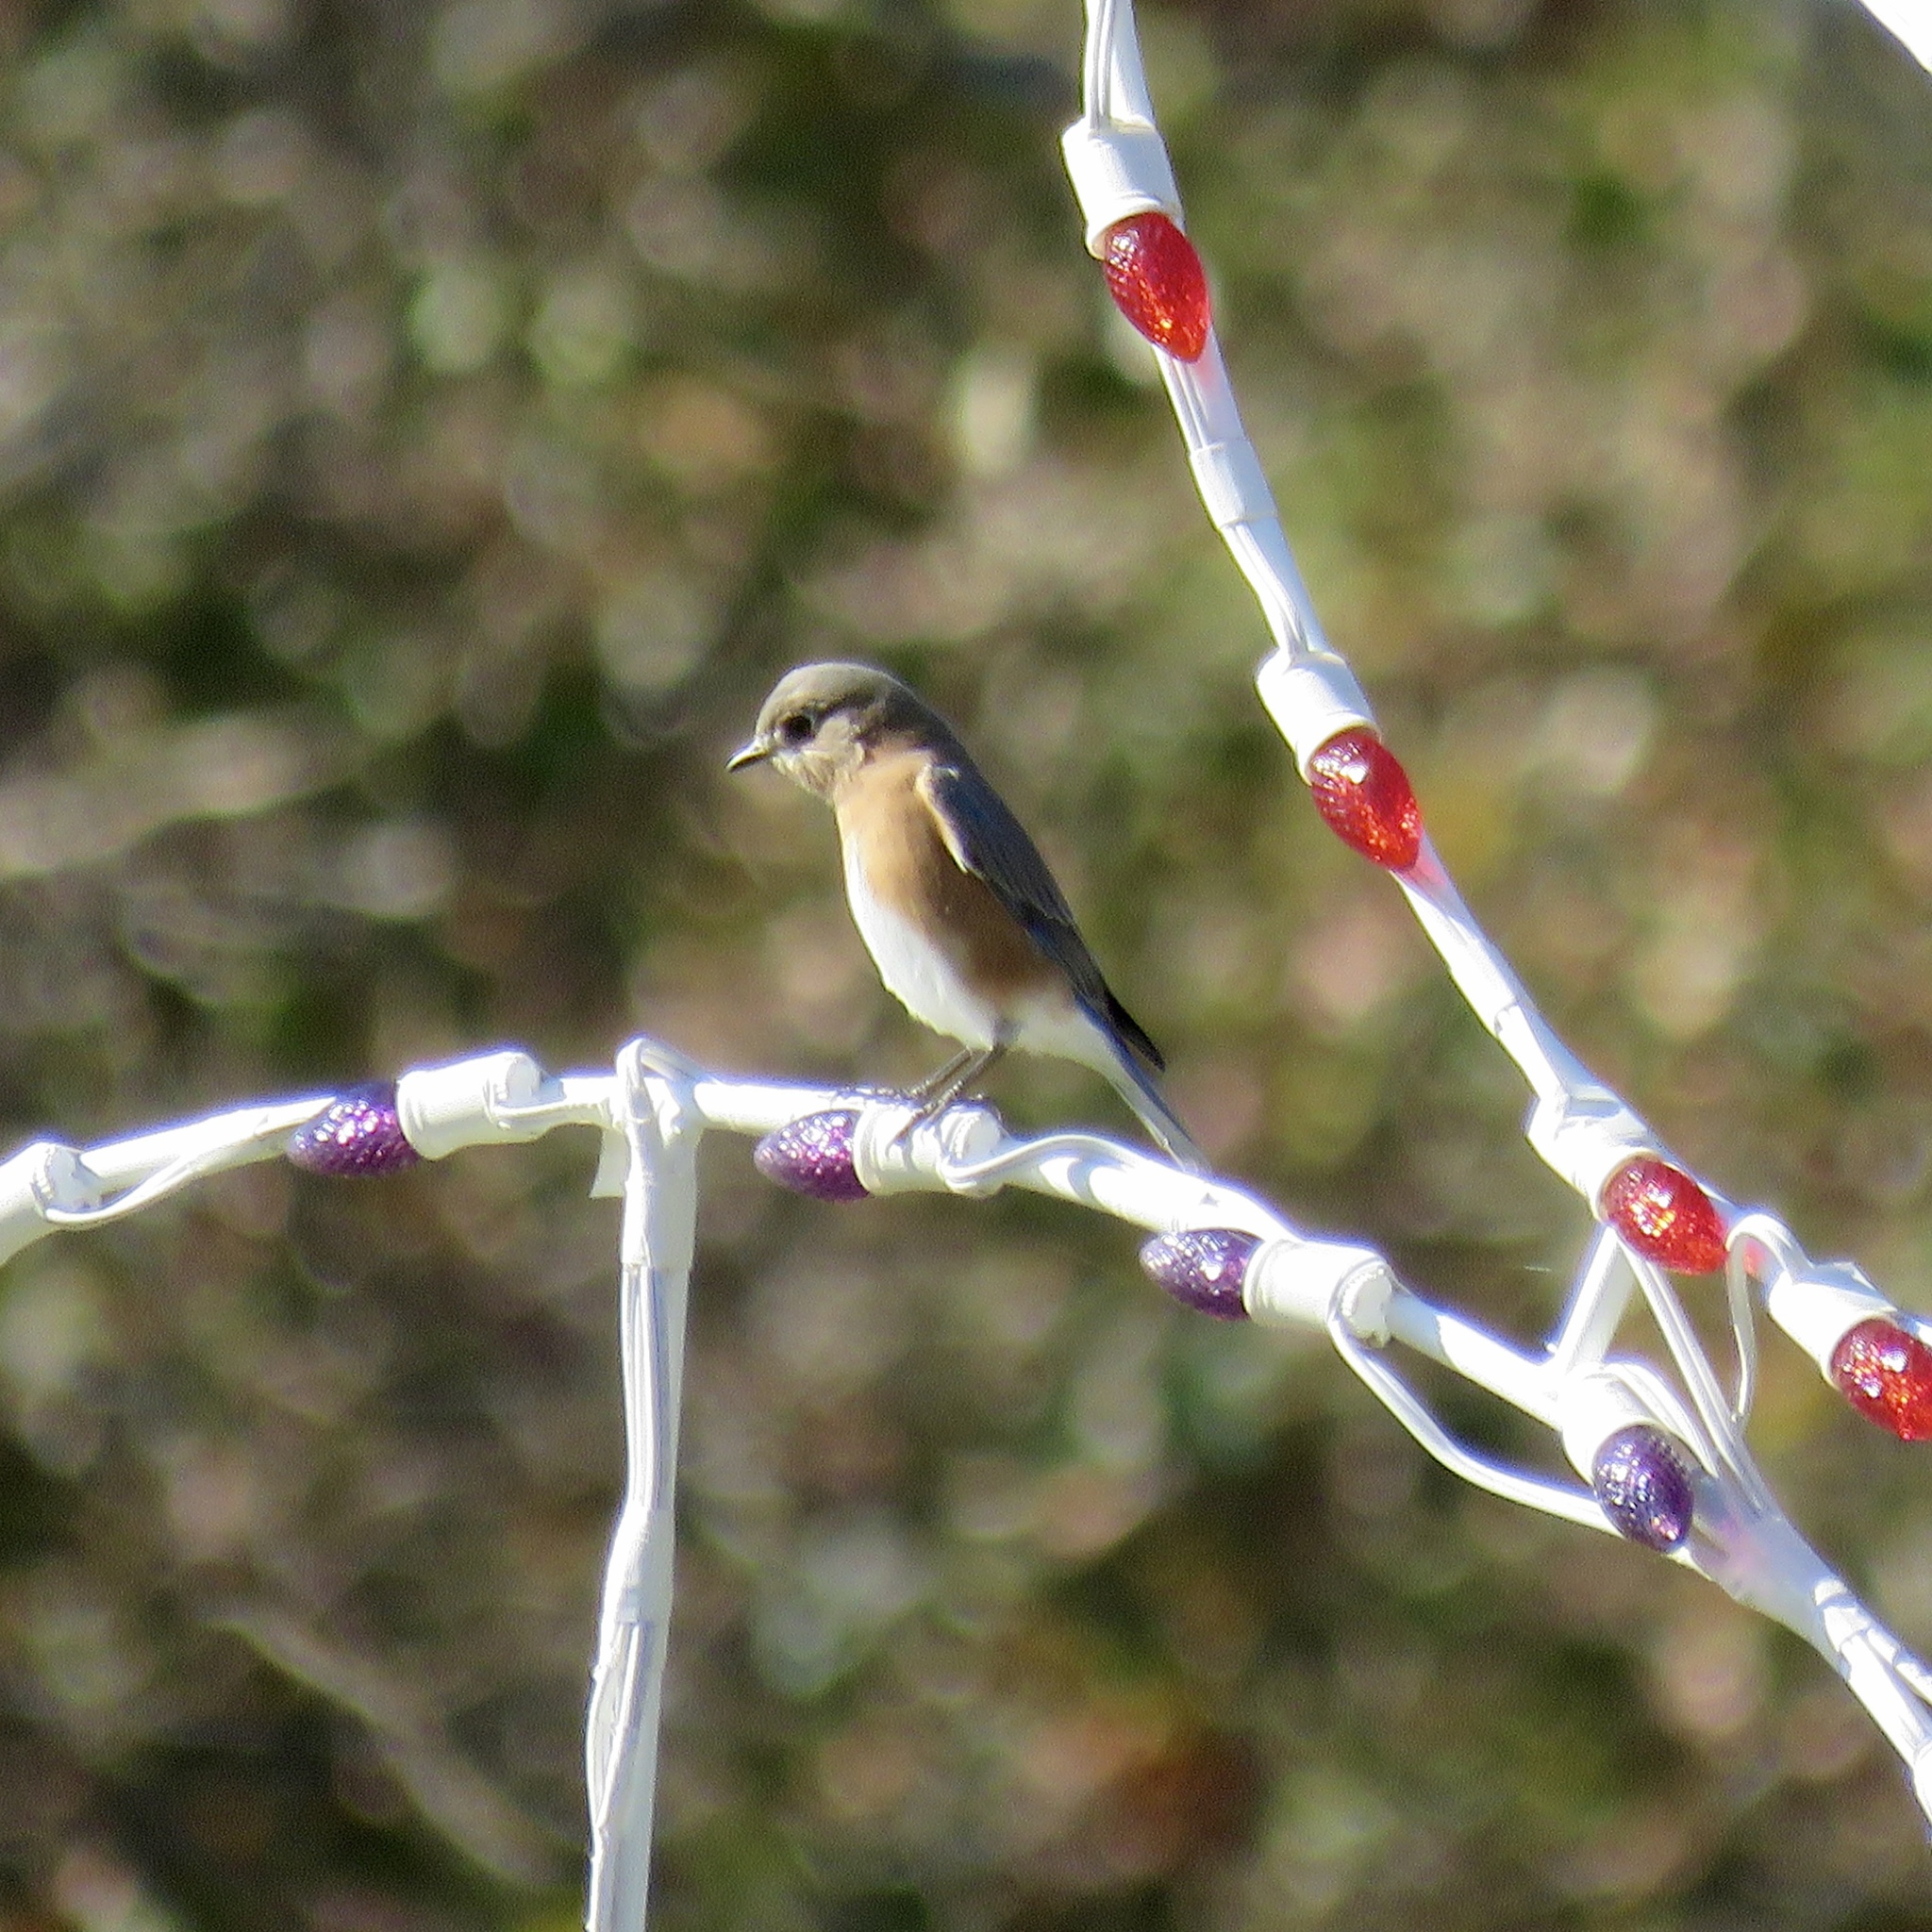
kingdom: Animalia
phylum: Chordata
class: Aves
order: Passeriformes
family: Turdidae
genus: Sialia
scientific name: Sialia sialis
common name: Eastern bluebird
